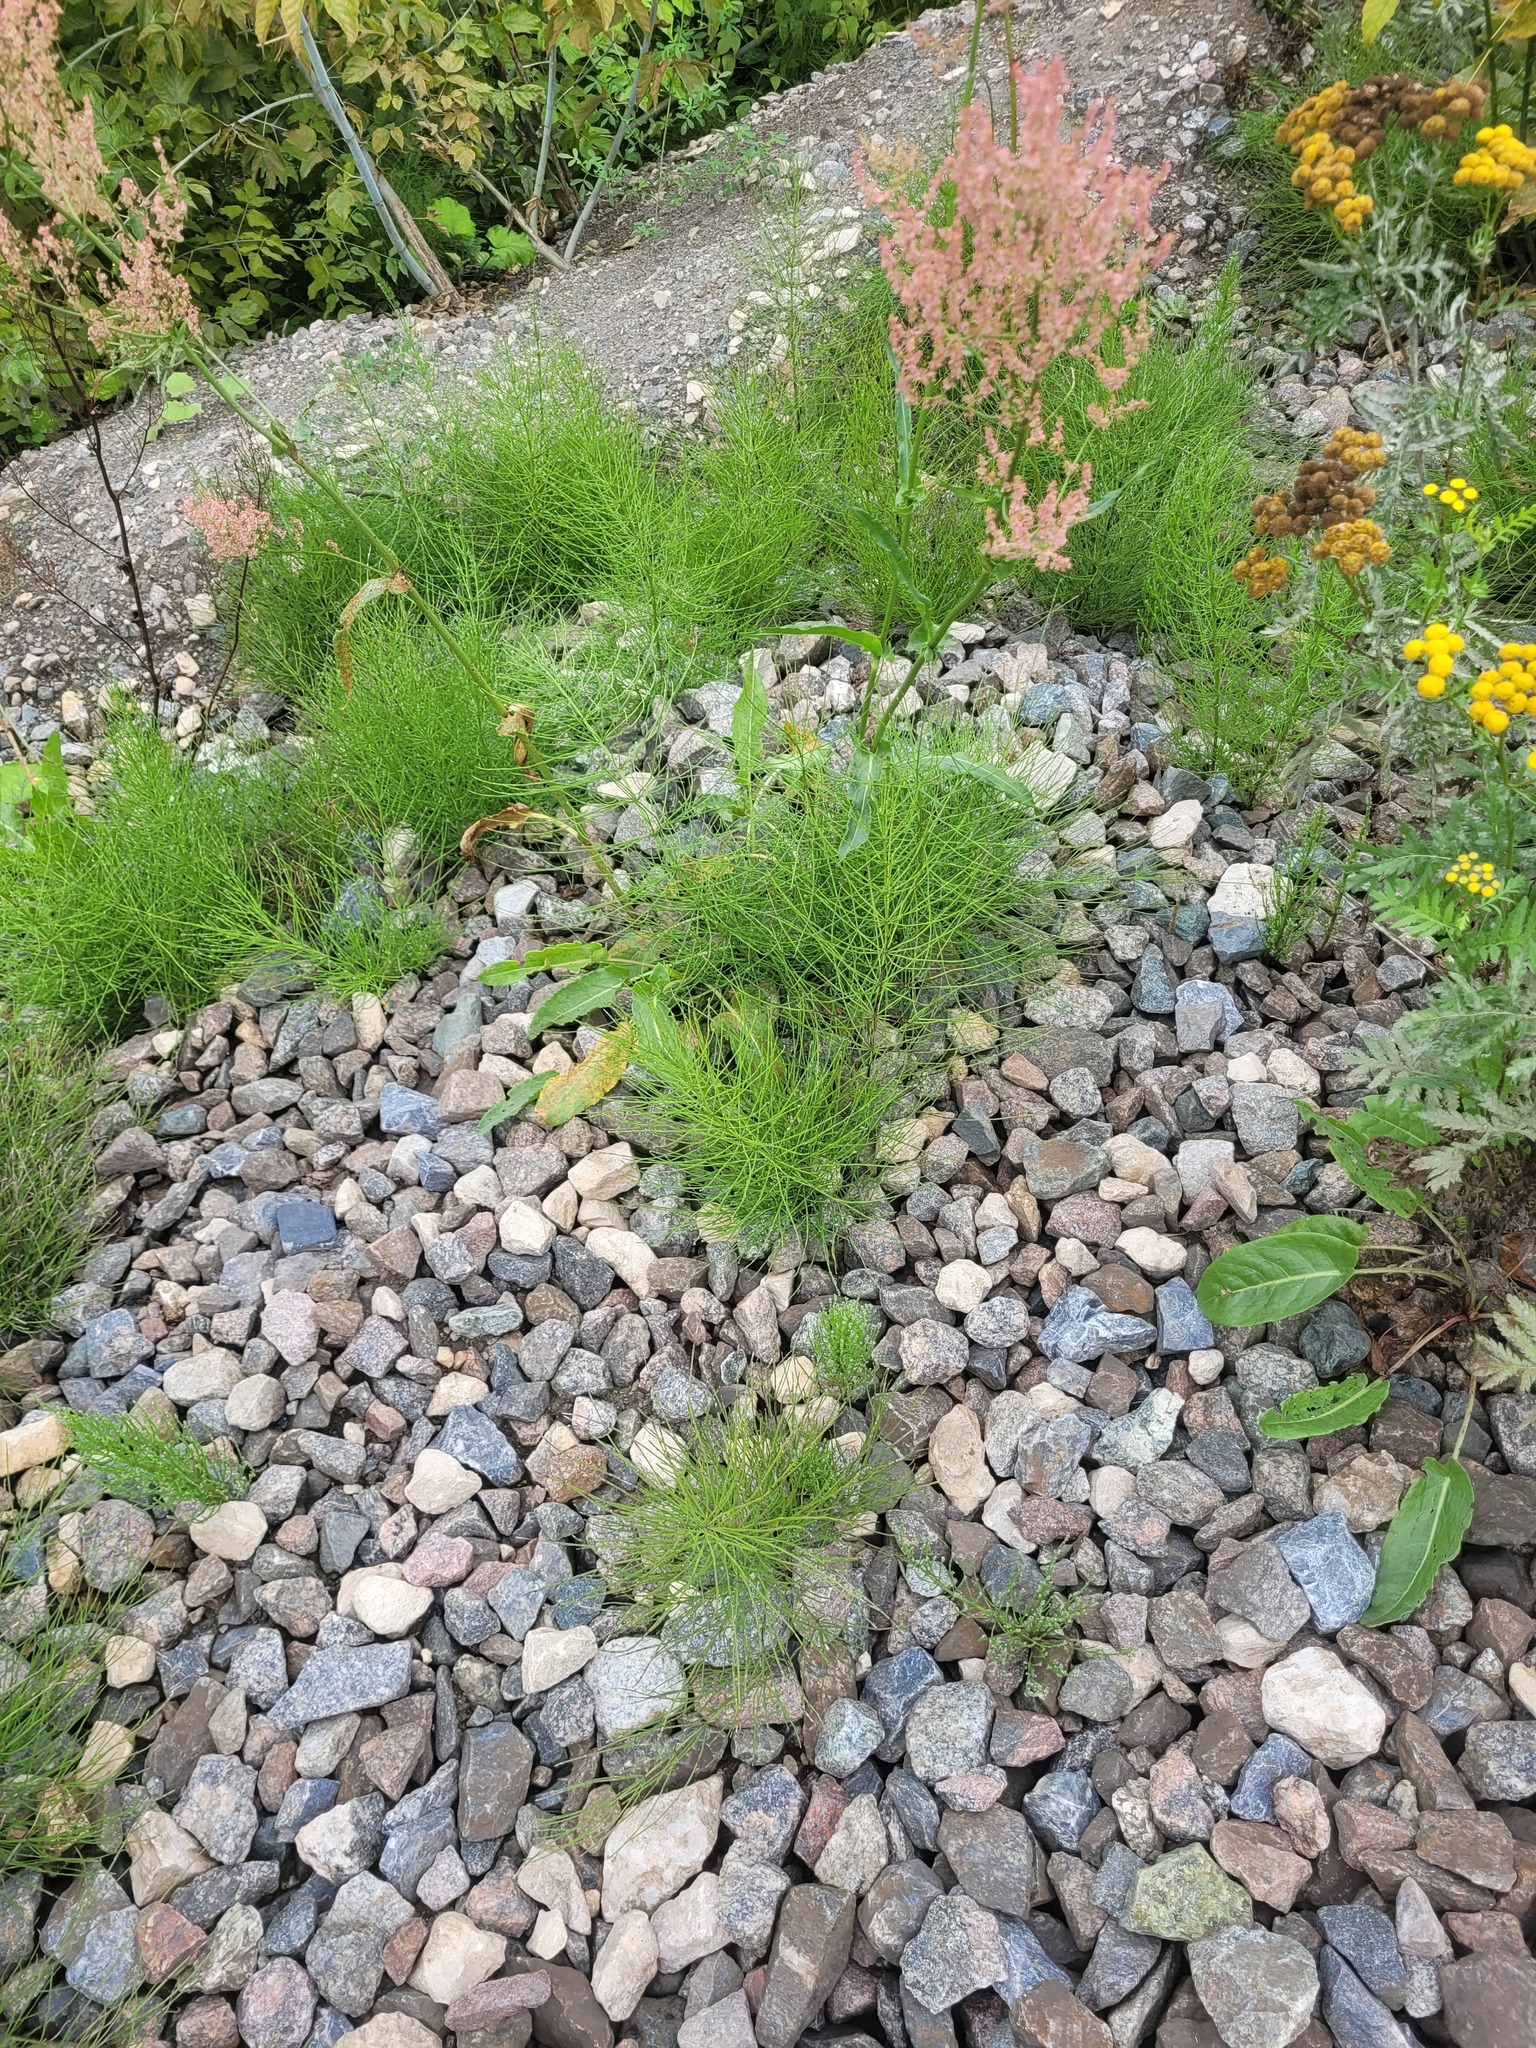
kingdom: Plantae
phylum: Tracheophyta
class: Polypodiopsida
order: Equisetales
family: Equisetaceae
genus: Equisetum
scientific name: Equisetum arvense
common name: Field horsetail
